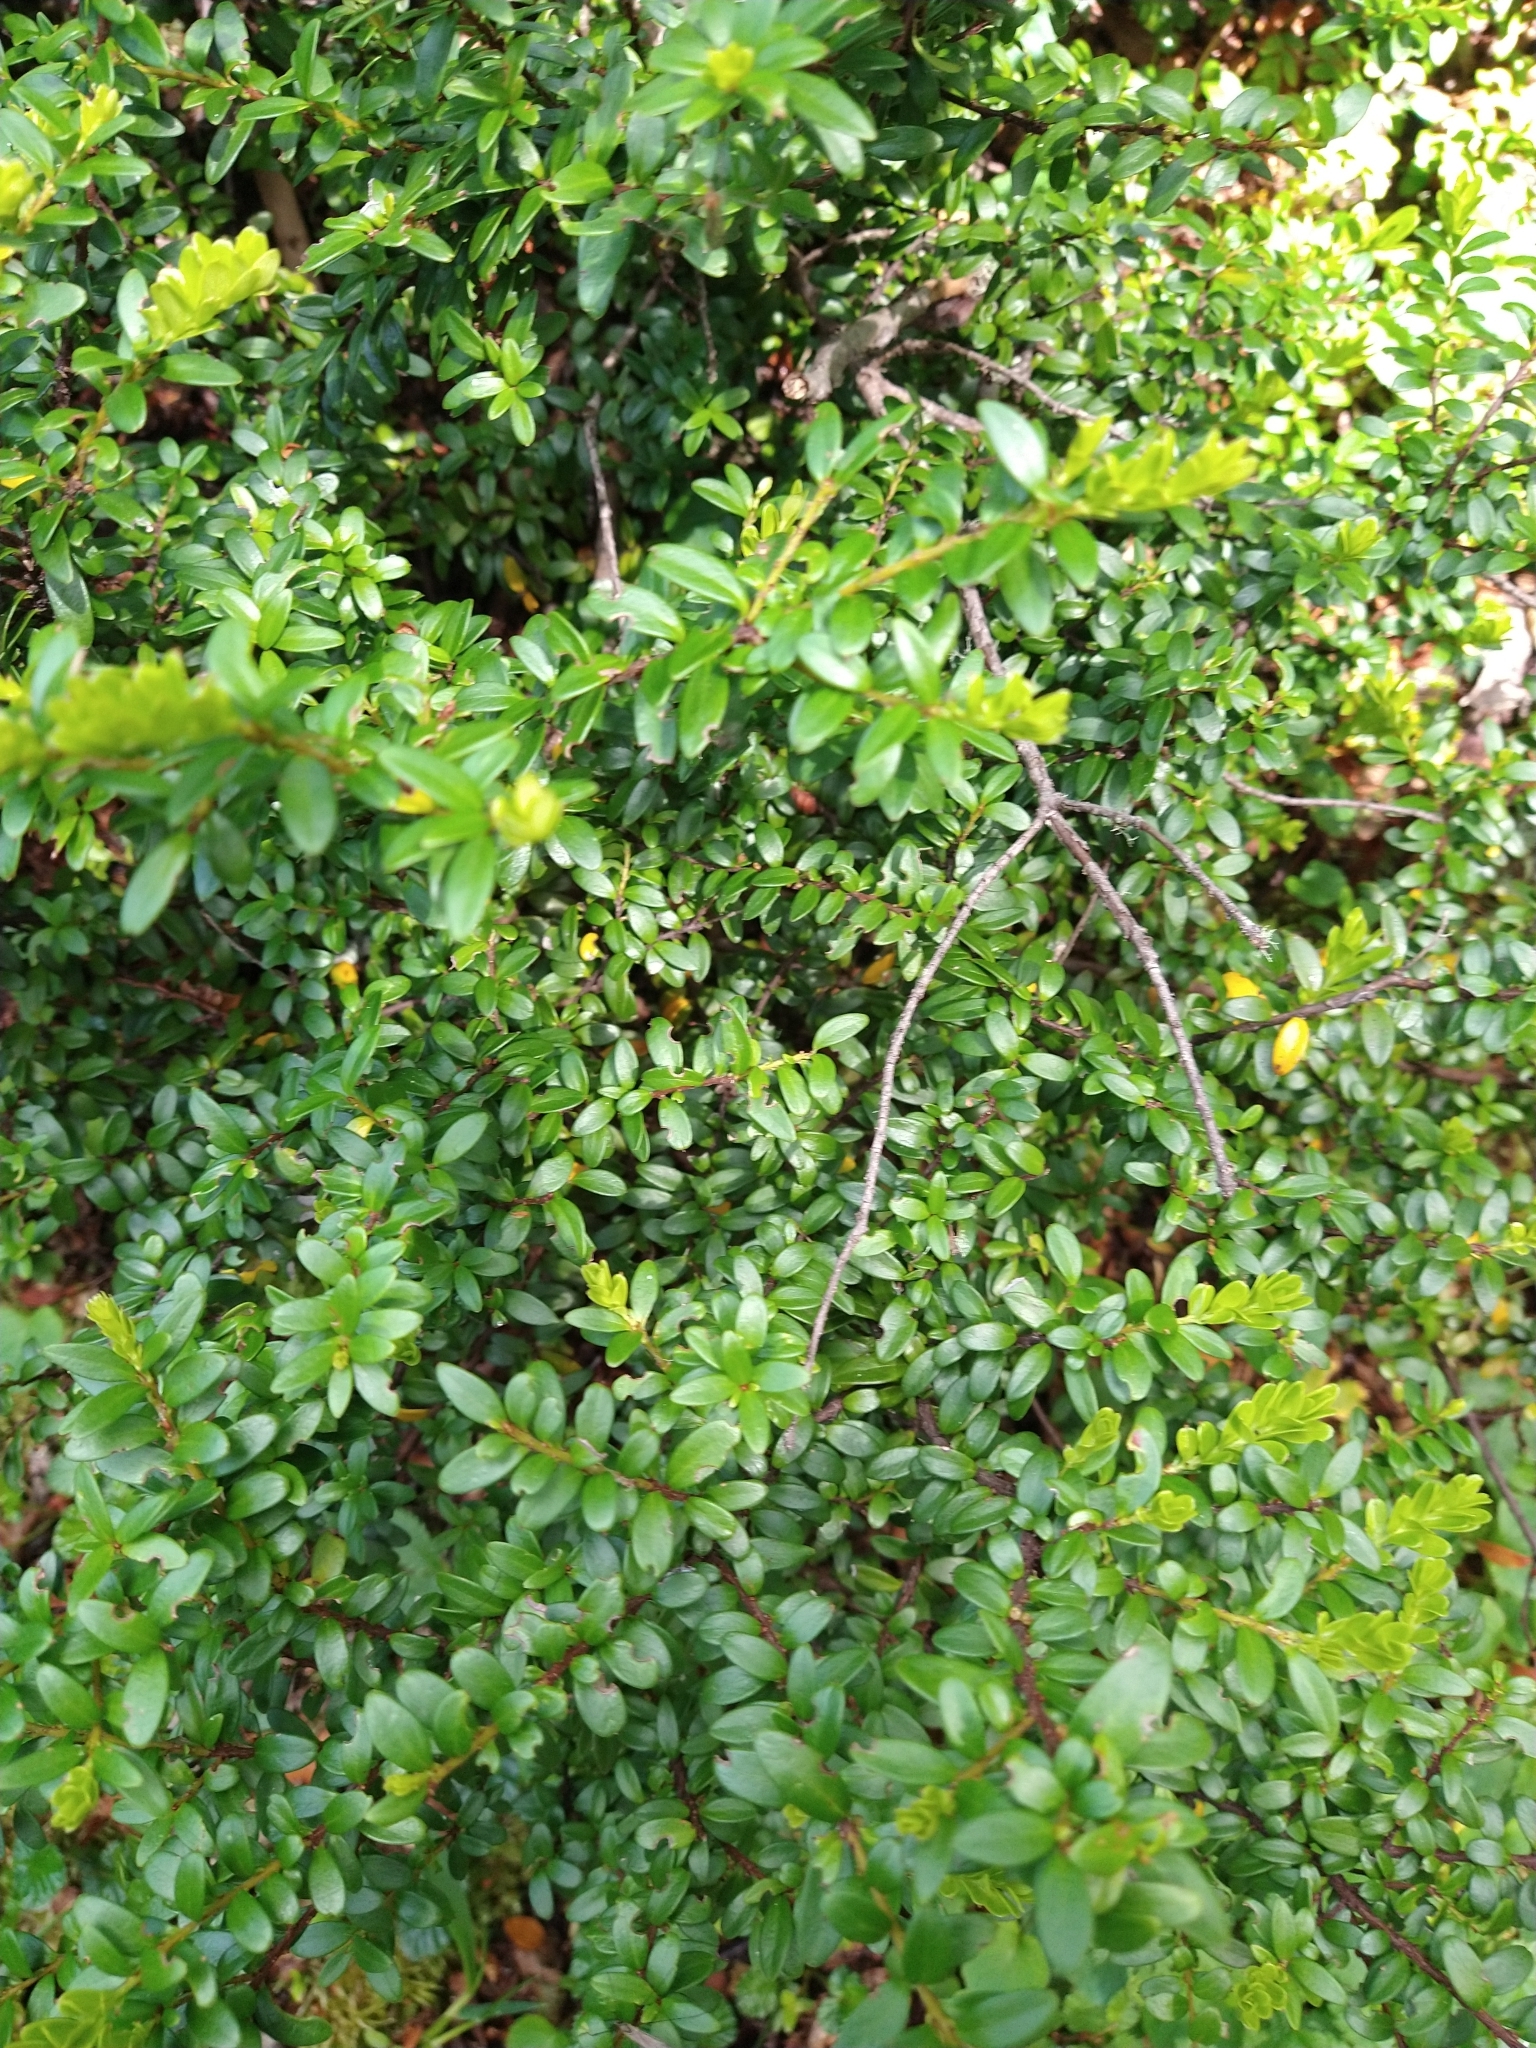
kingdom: Plantae
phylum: Tracheophyta
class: Magnoliopsida
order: Celastrales
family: Celastraceae
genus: Maytenus
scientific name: Maytenus disticha
